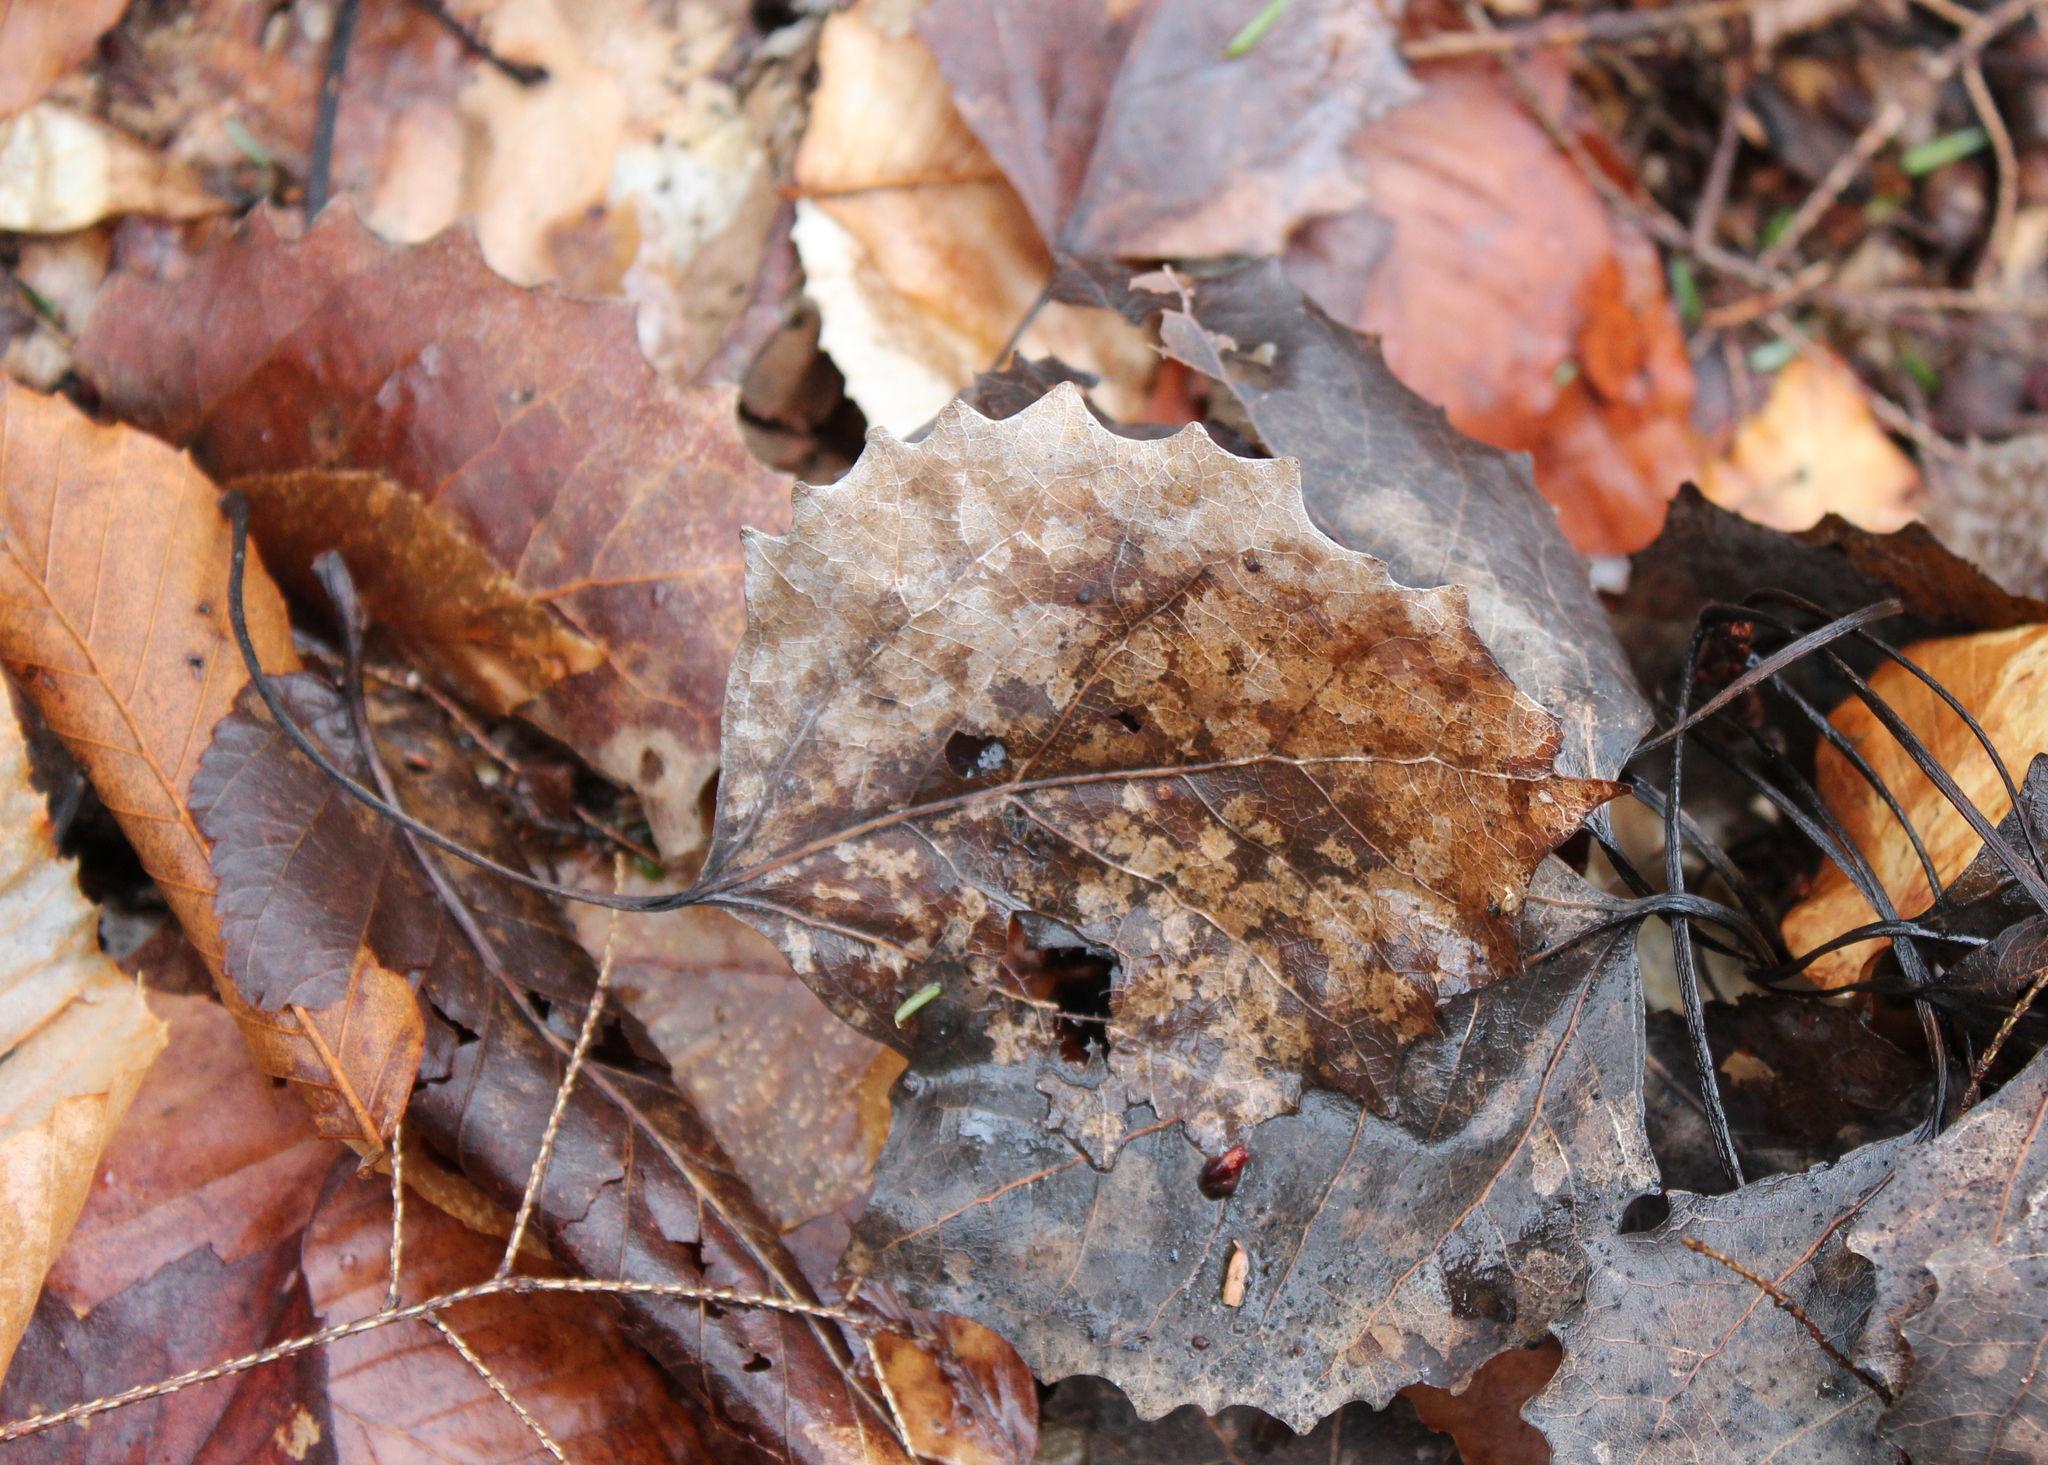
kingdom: Plantae
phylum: Tracheophyta
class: Magnoliopsida
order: Malpighiales
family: Salicaceae
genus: Populus
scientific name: Populus grandidentata
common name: Bigtooth aspen
